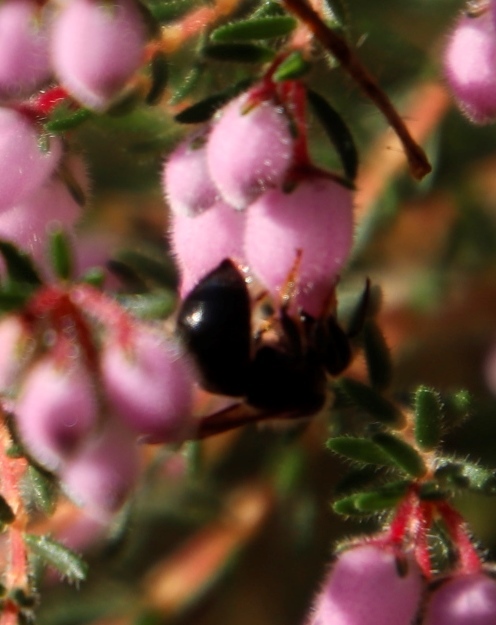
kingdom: Plantae
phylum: Tracheophyta
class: Magnoliopsida
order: Ericales
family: Ericaceae
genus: Erica
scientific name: Erica hirtiflora
